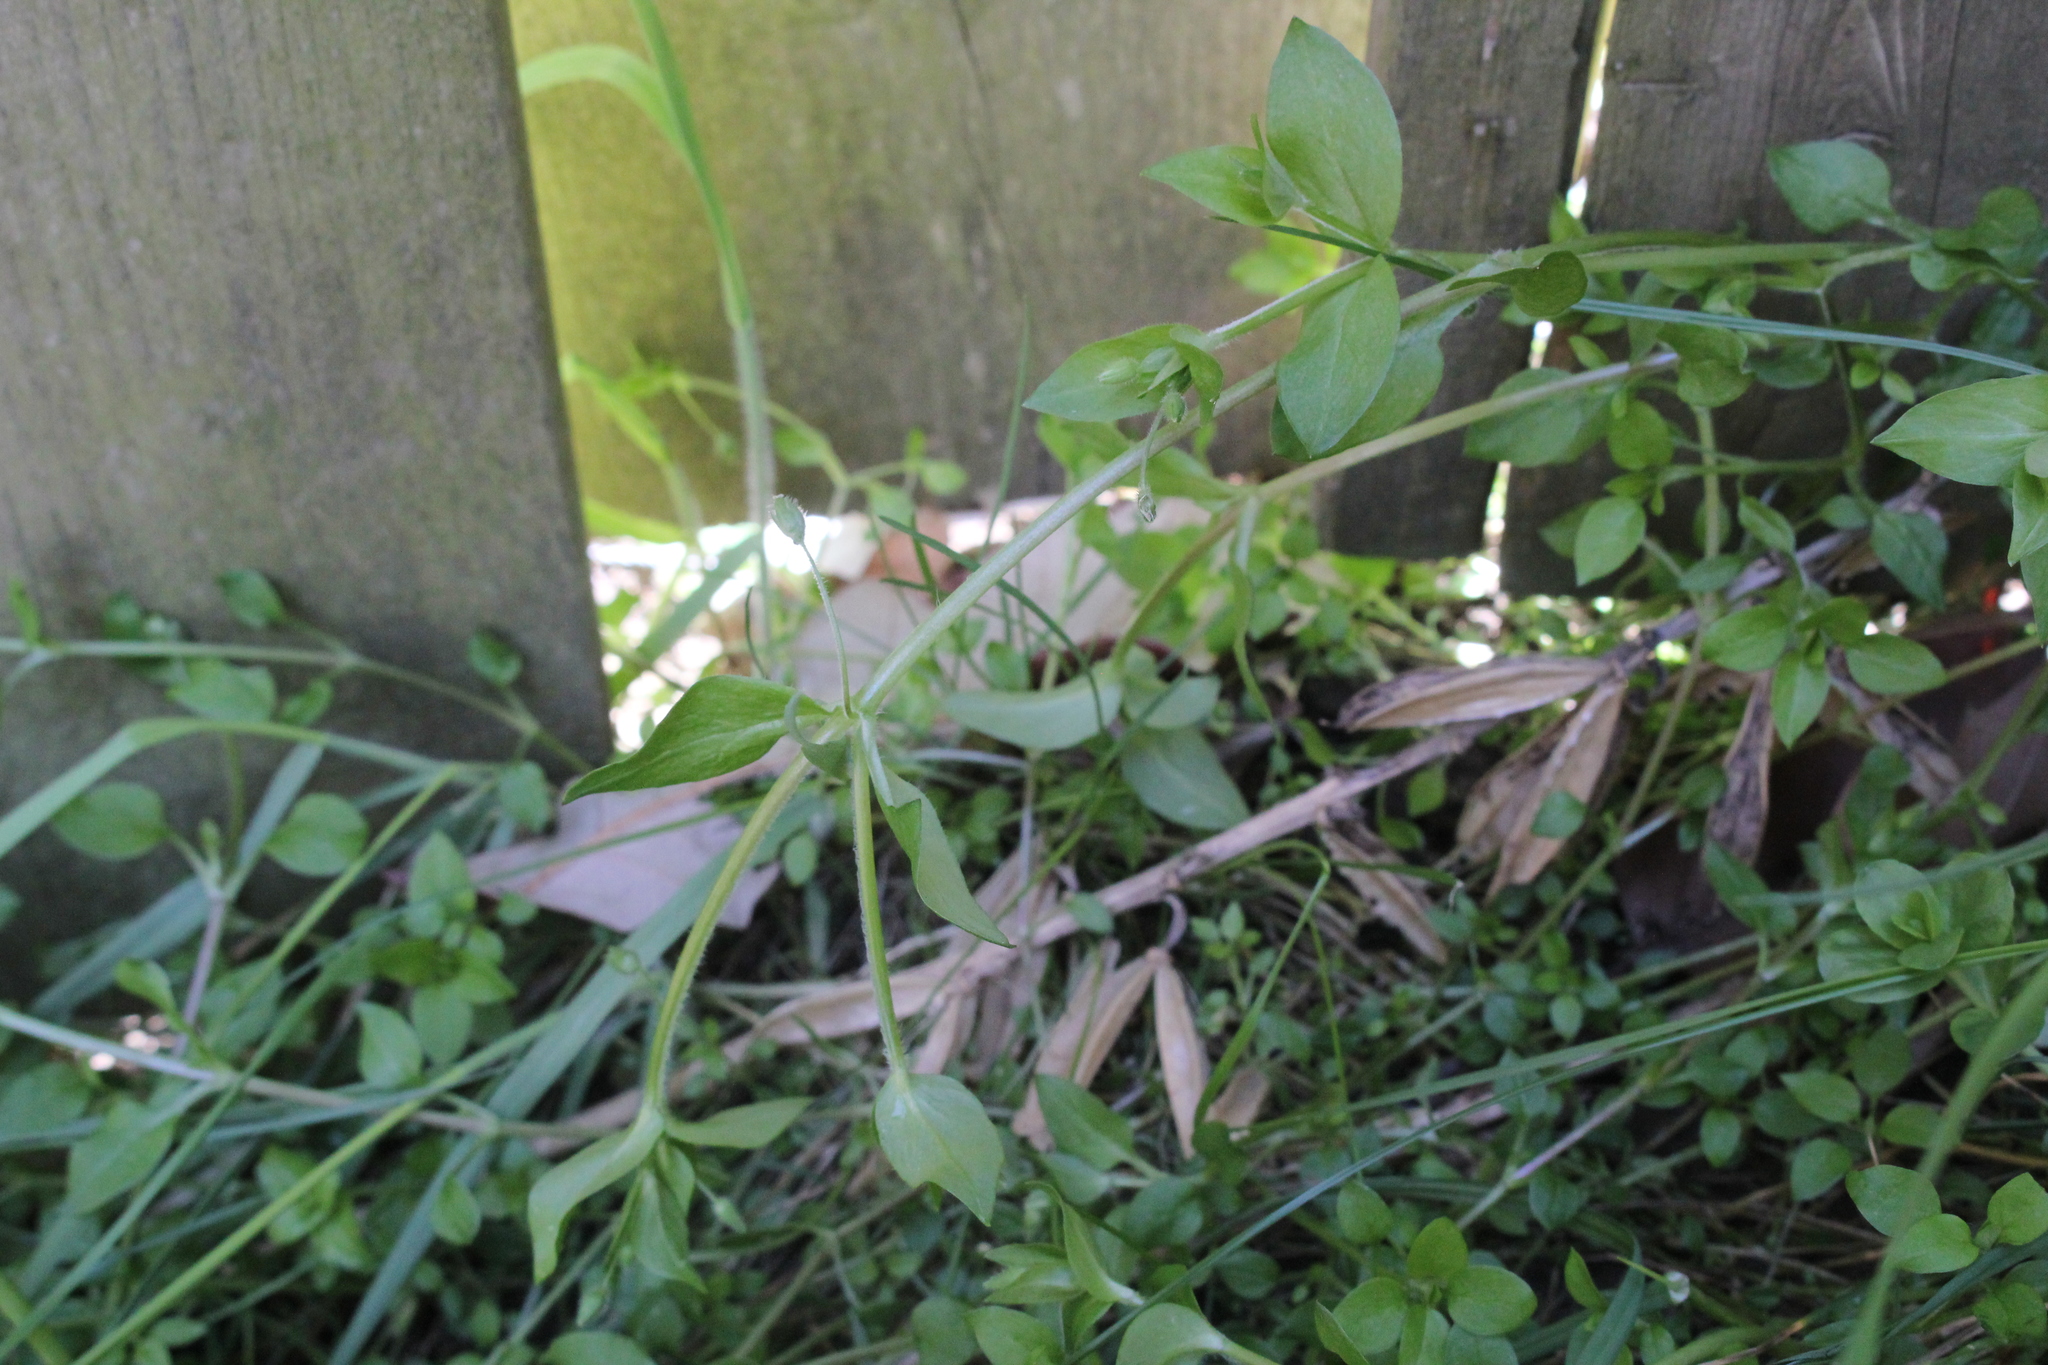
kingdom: Plantae
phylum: Tracheophyta
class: Magnoliopsida
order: Caryophyllales
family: Caryophyllaceae
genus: Stellaria
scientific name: Stellaria media
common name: Common chickweed
